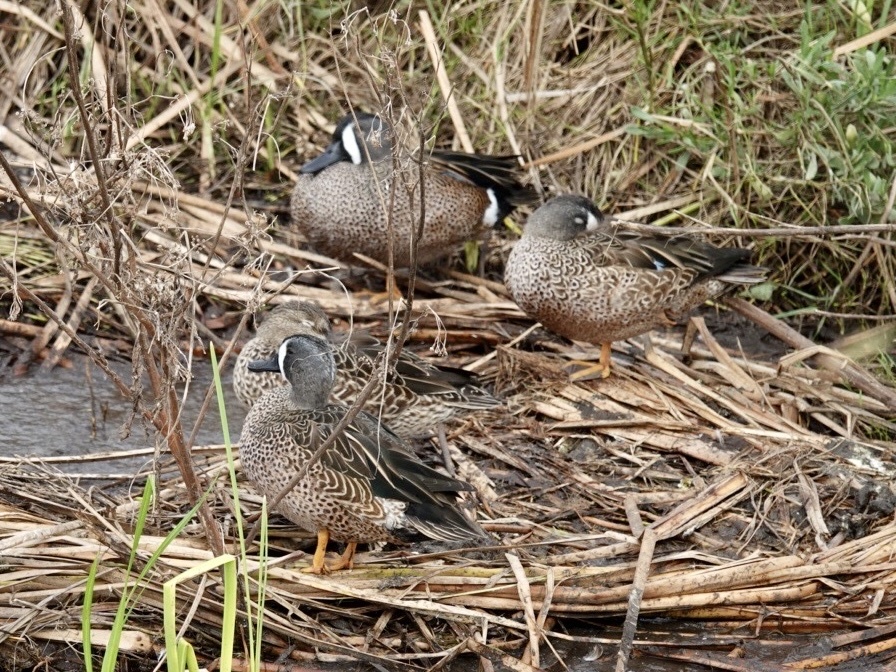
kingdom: Animalia
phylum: Chordata
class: Aves
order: Anseriformes
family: Anatidae
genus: Spatula
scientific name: Spatula discors
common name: Blue-winged teal
